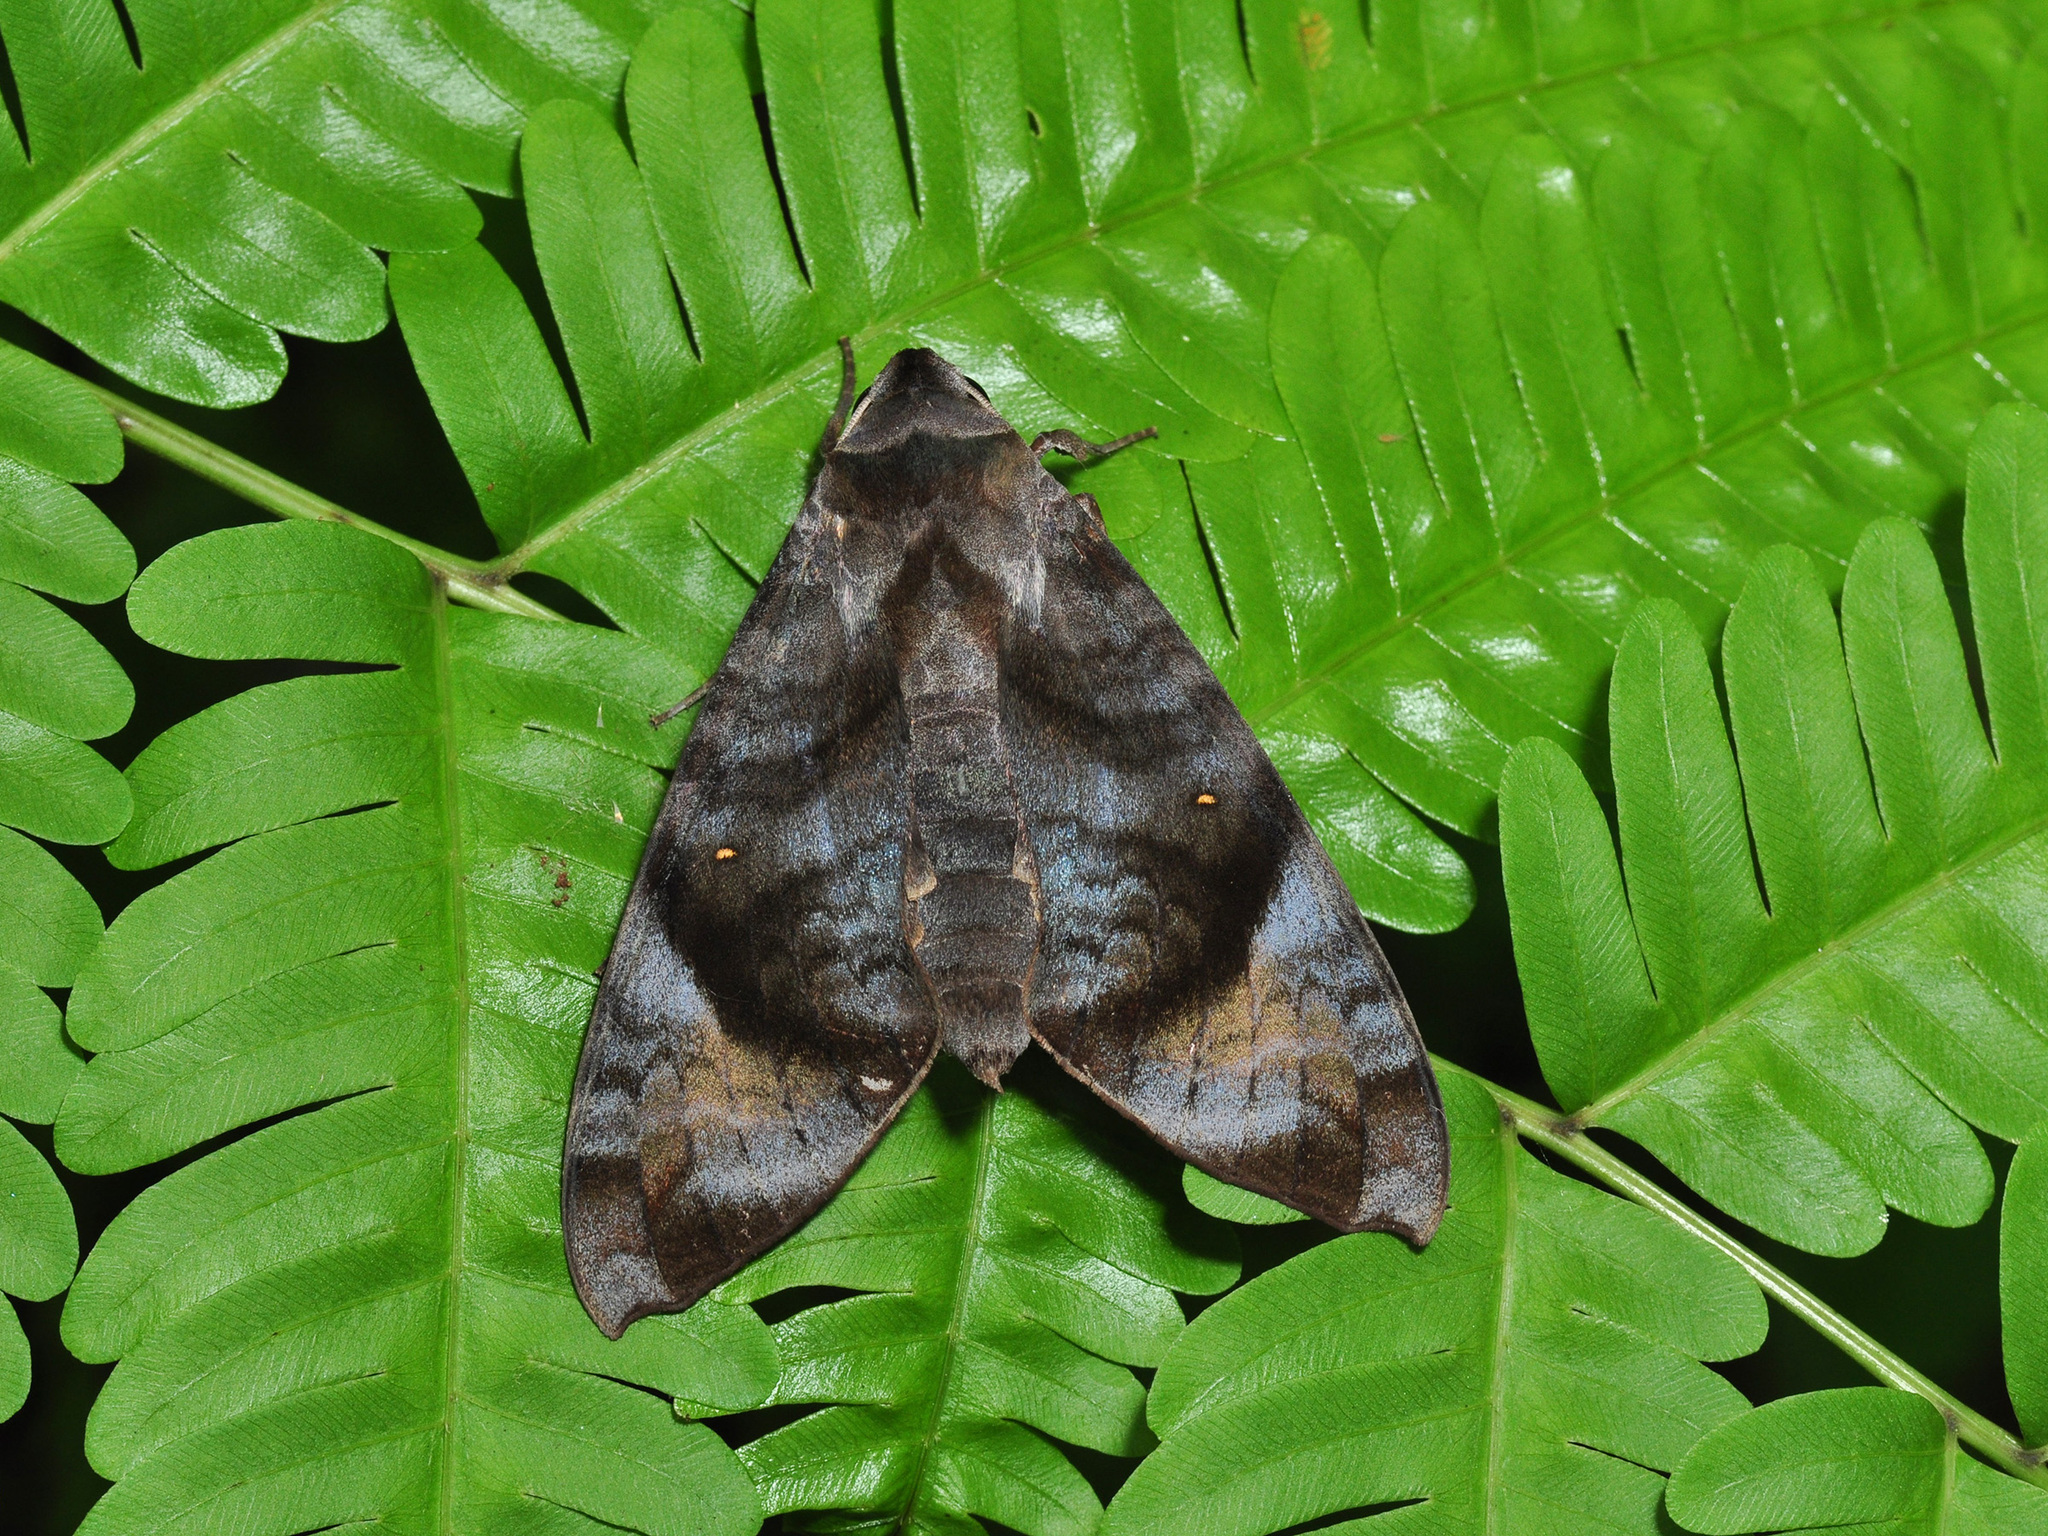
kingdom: Animalia
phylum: Arthropoda
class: Insecta
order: Lepidoptera
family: Sphingidae
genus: Acosmeryx
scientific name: Acosmeryx pseudonaga
